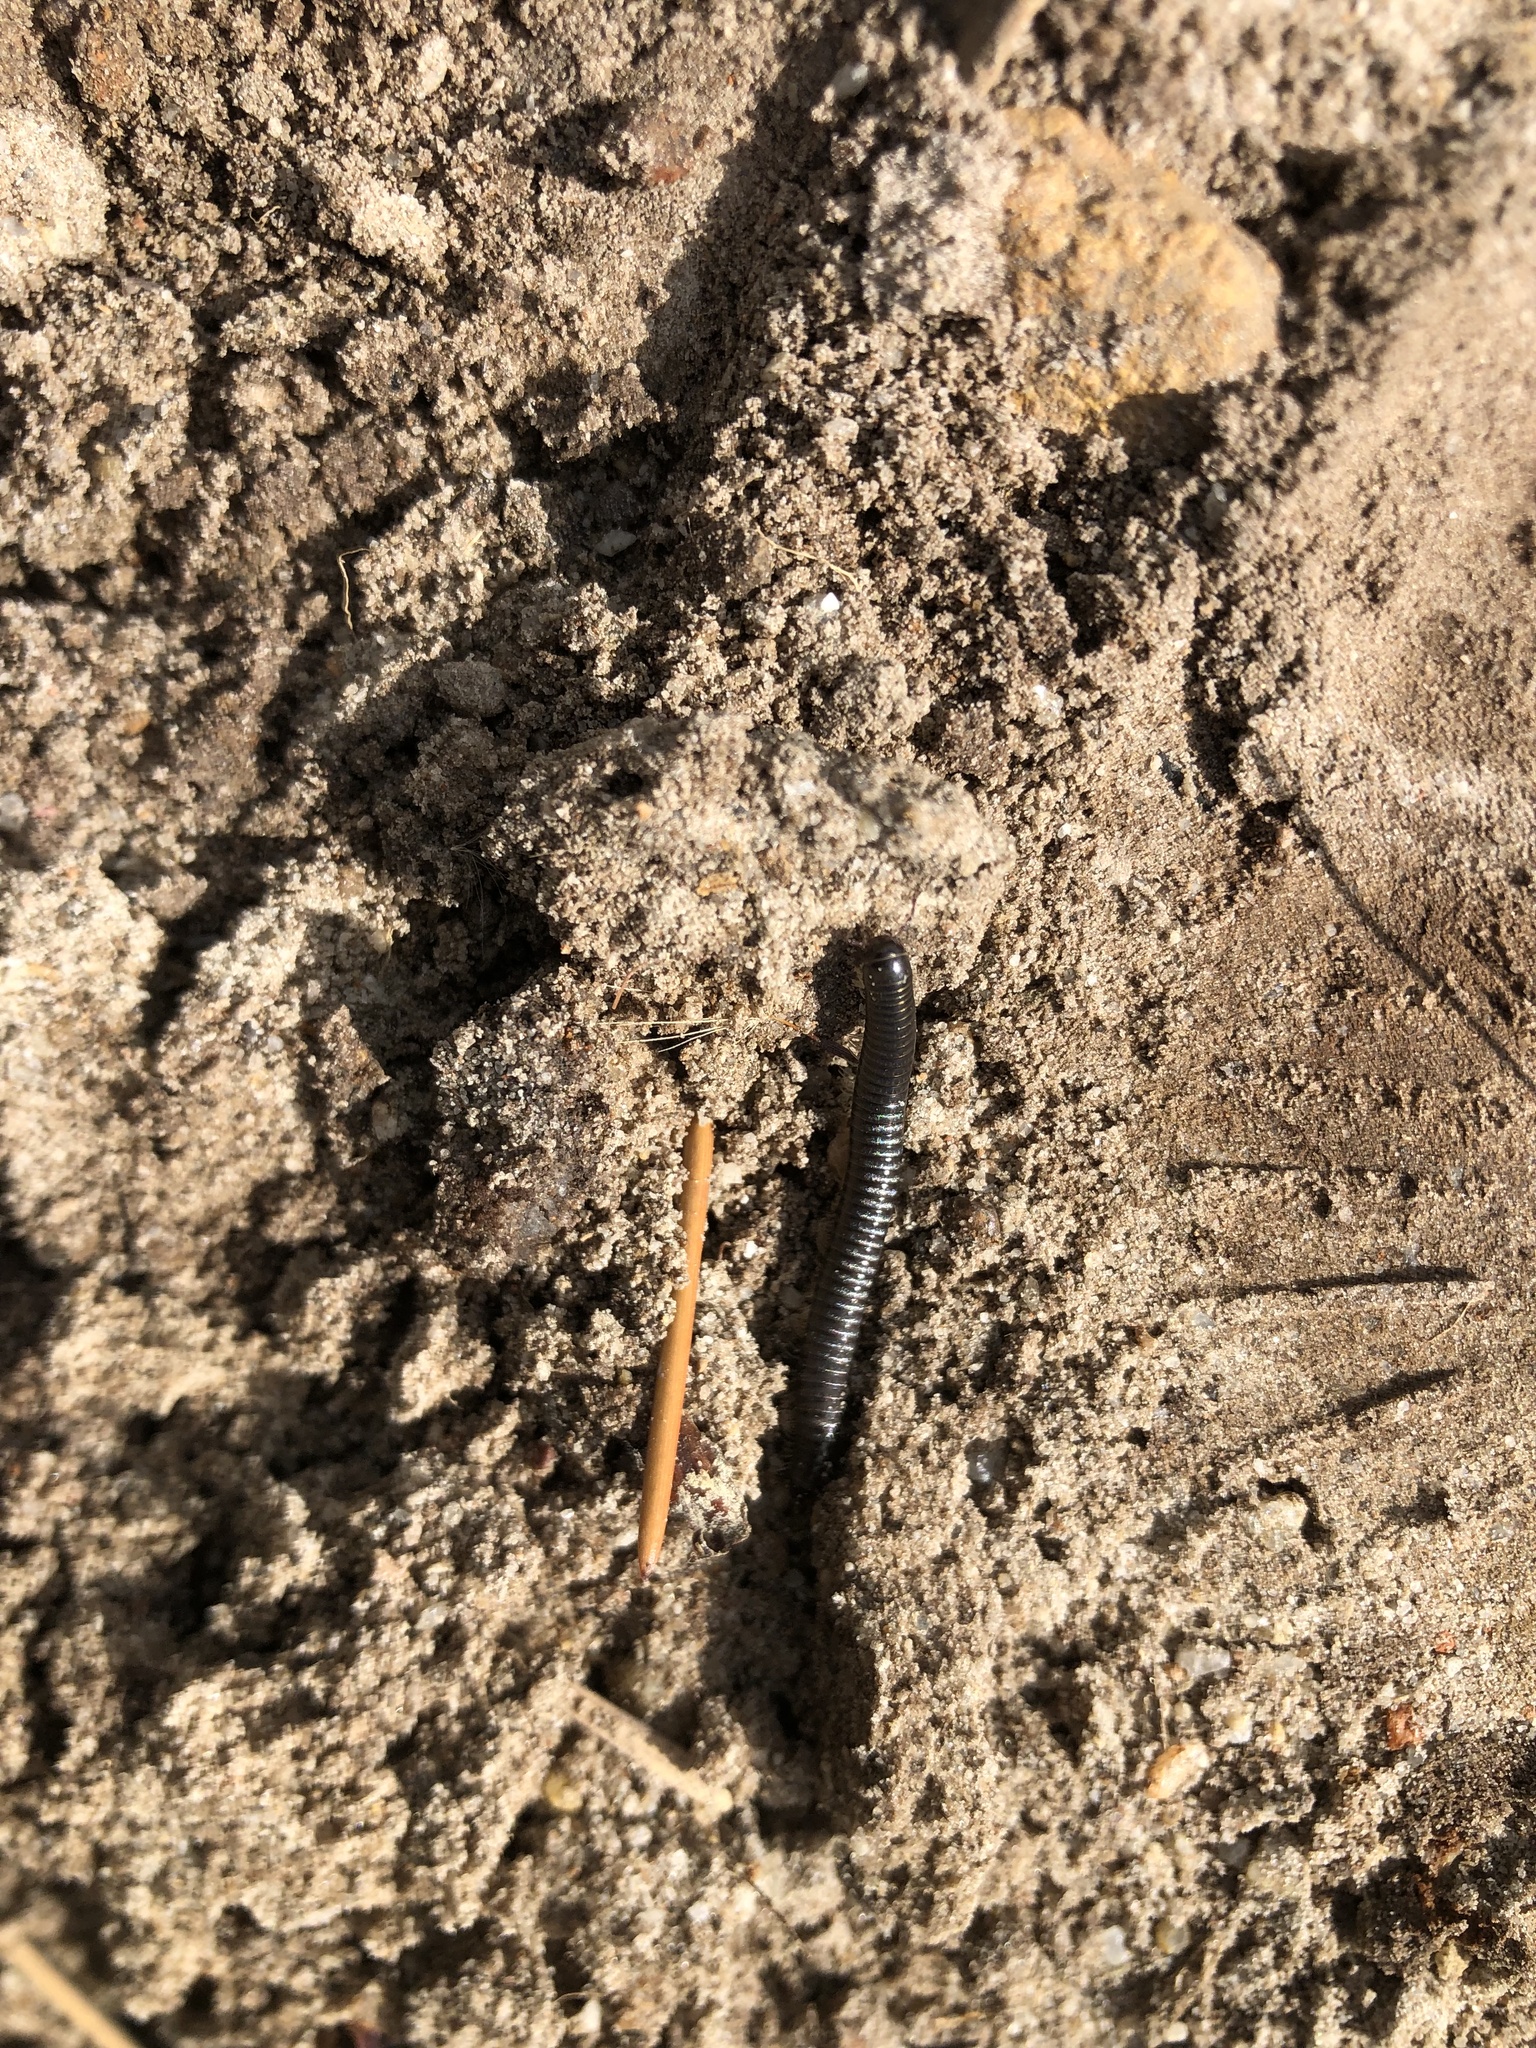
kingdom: Animalia
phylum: Arthropoda
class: Diplopoda
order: Julida
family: Julidae
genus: Ommatoiulus
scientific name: Ommatoiulus moreleti
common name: Portuguese millipede
